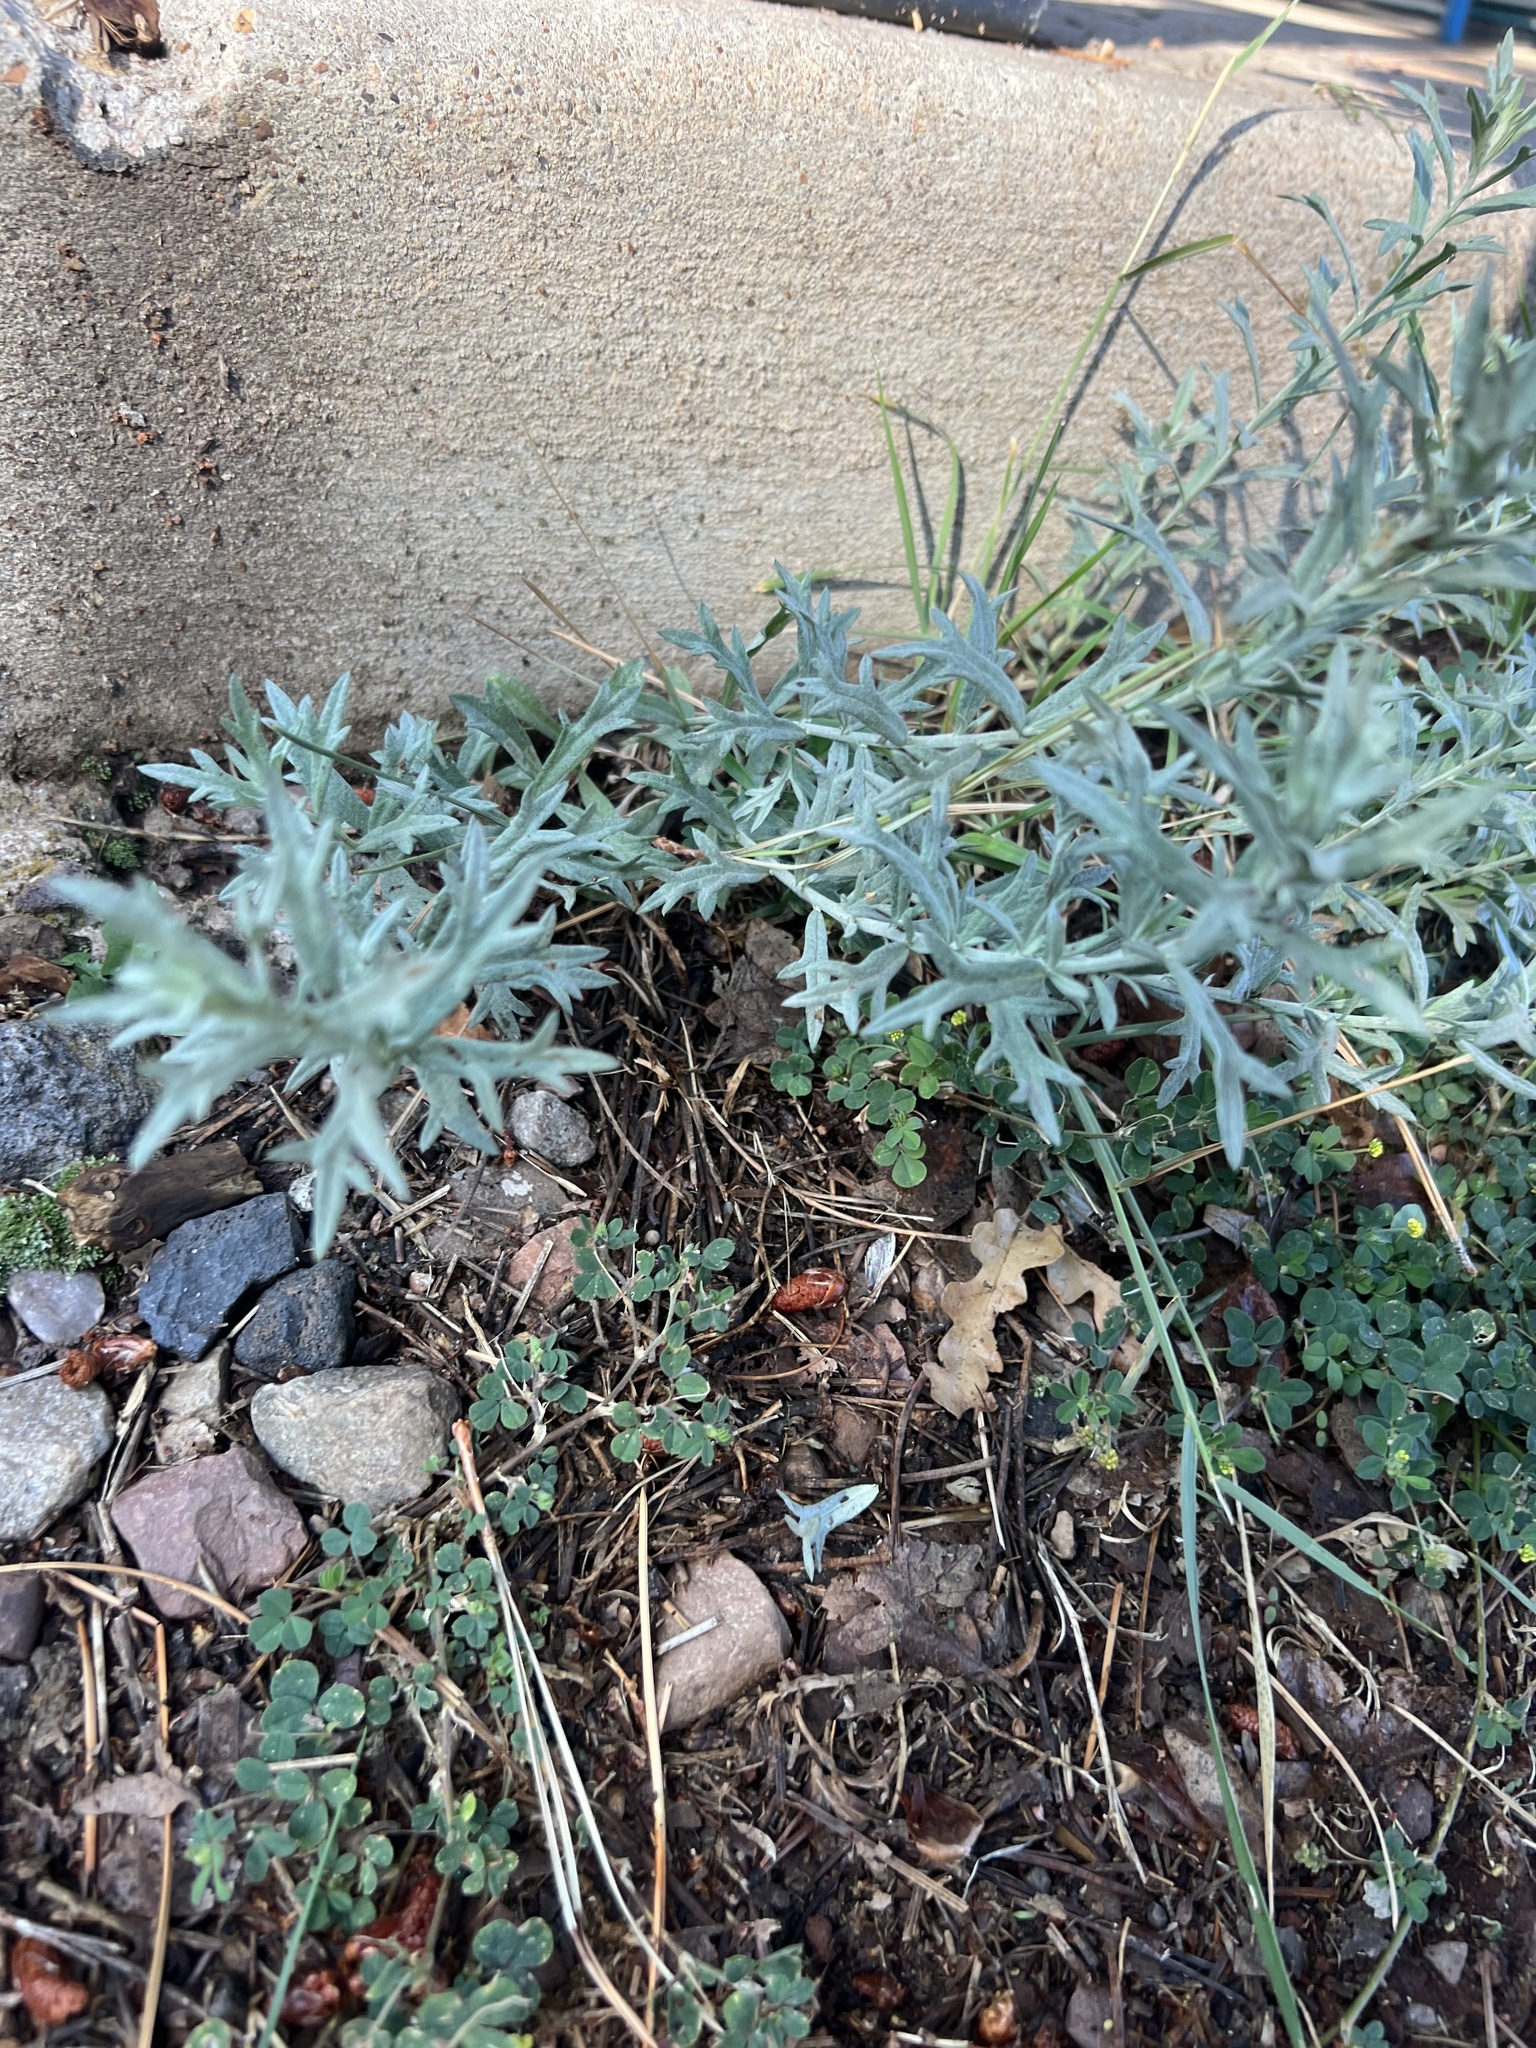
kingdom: Plantae
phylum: Tracheophyta
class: Magnoliopsida
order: Asterales
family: Asteraceae
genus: Artemisia
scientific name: Artemisia ludoviciana
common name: Western mugwort
